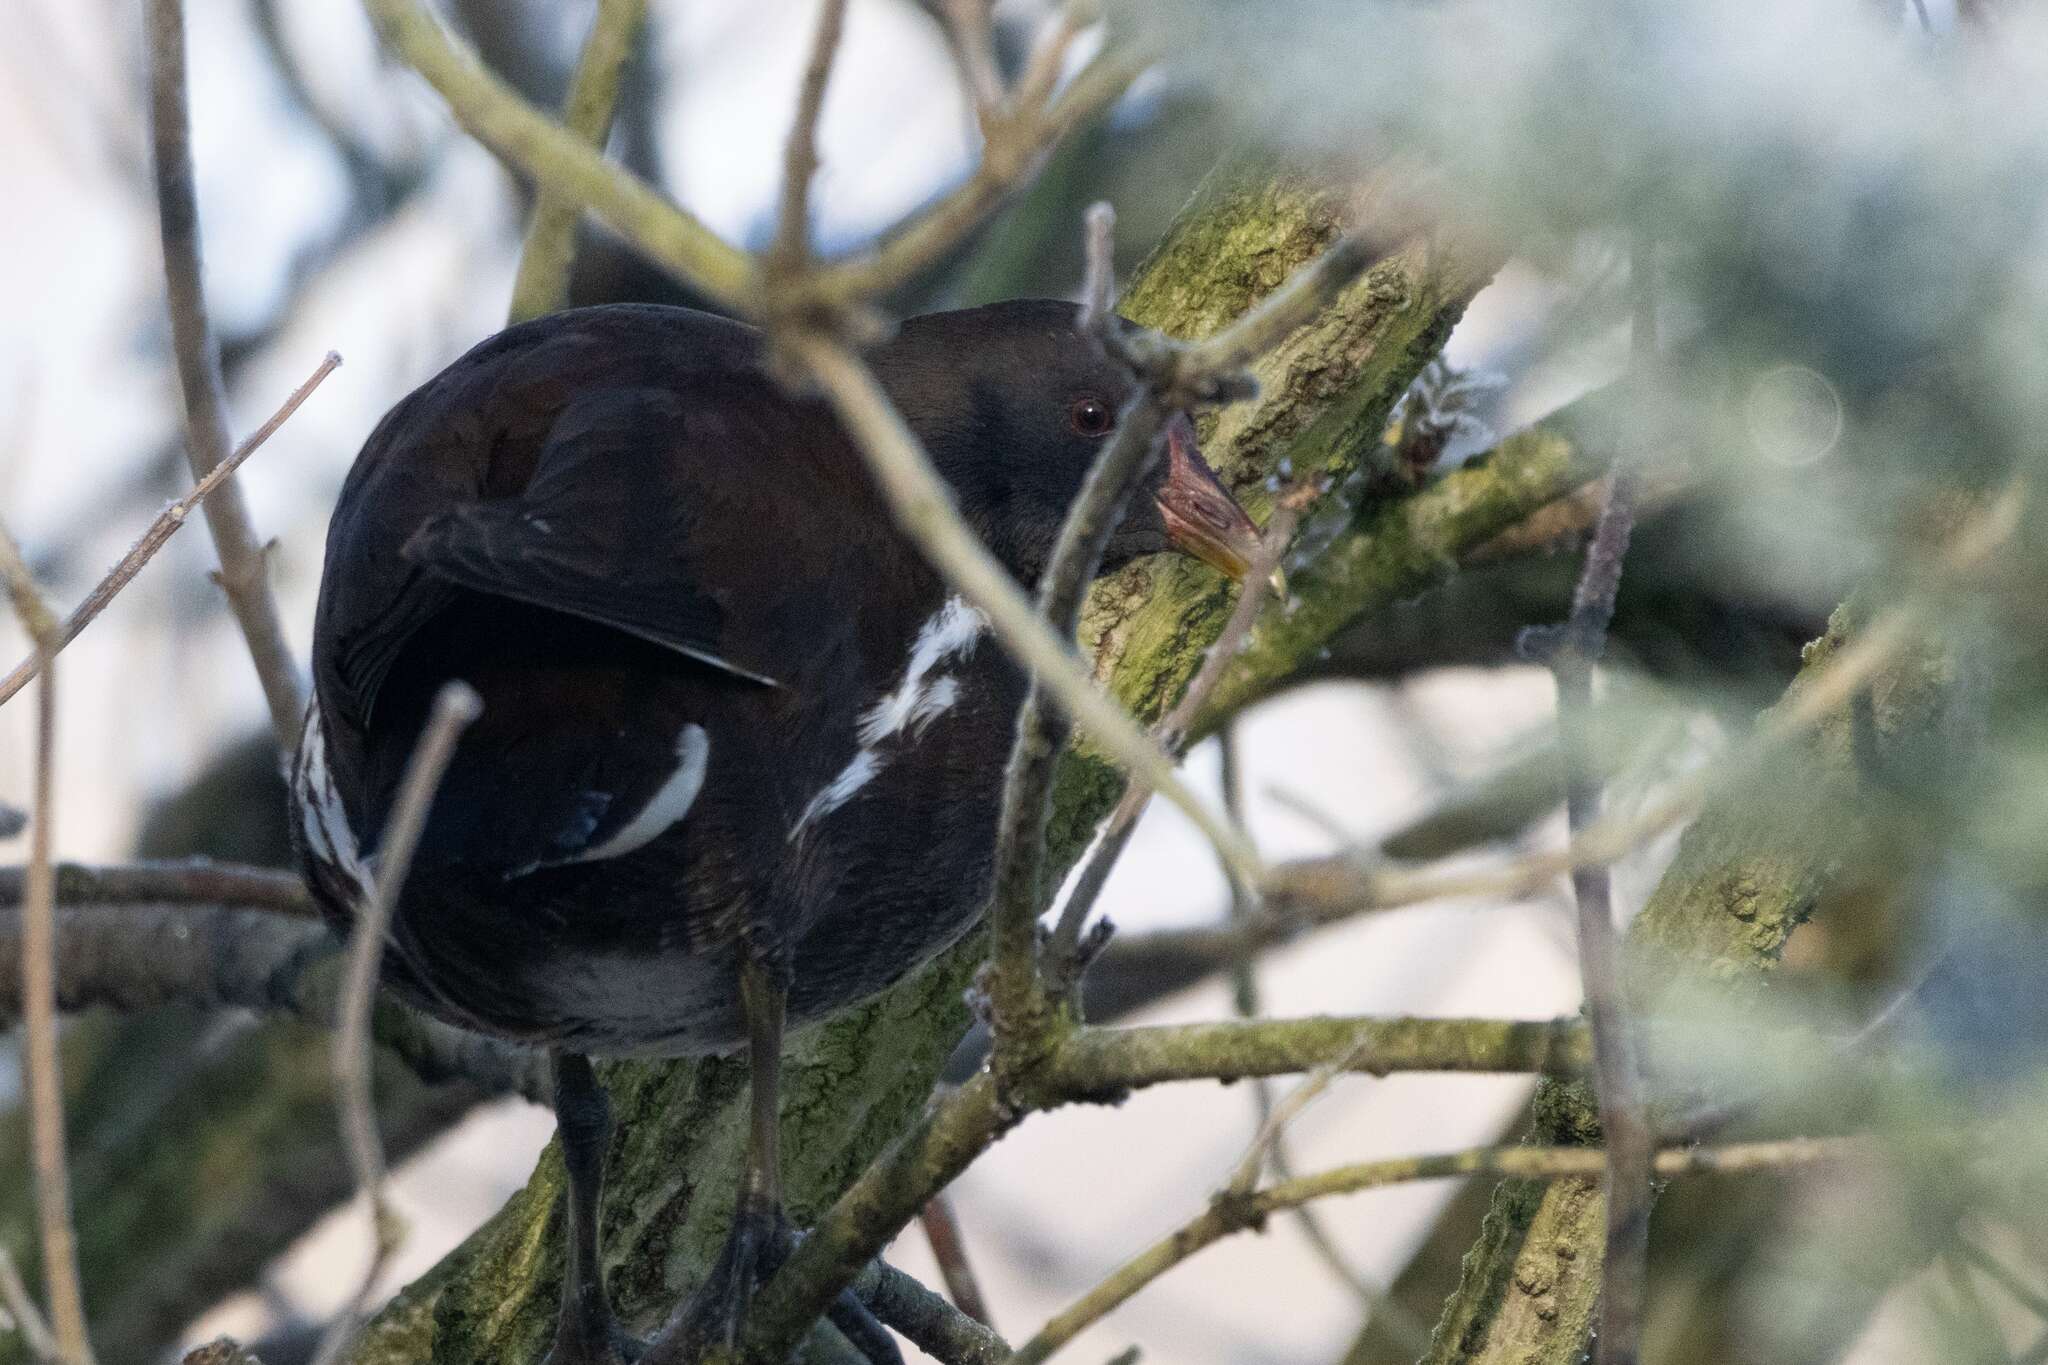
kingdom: Animalia
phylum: Chordata
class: Aves
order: Gruiformes
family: Rallidae
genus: Gallinula
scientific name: Gallinula chloropus
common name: Common moorhen
